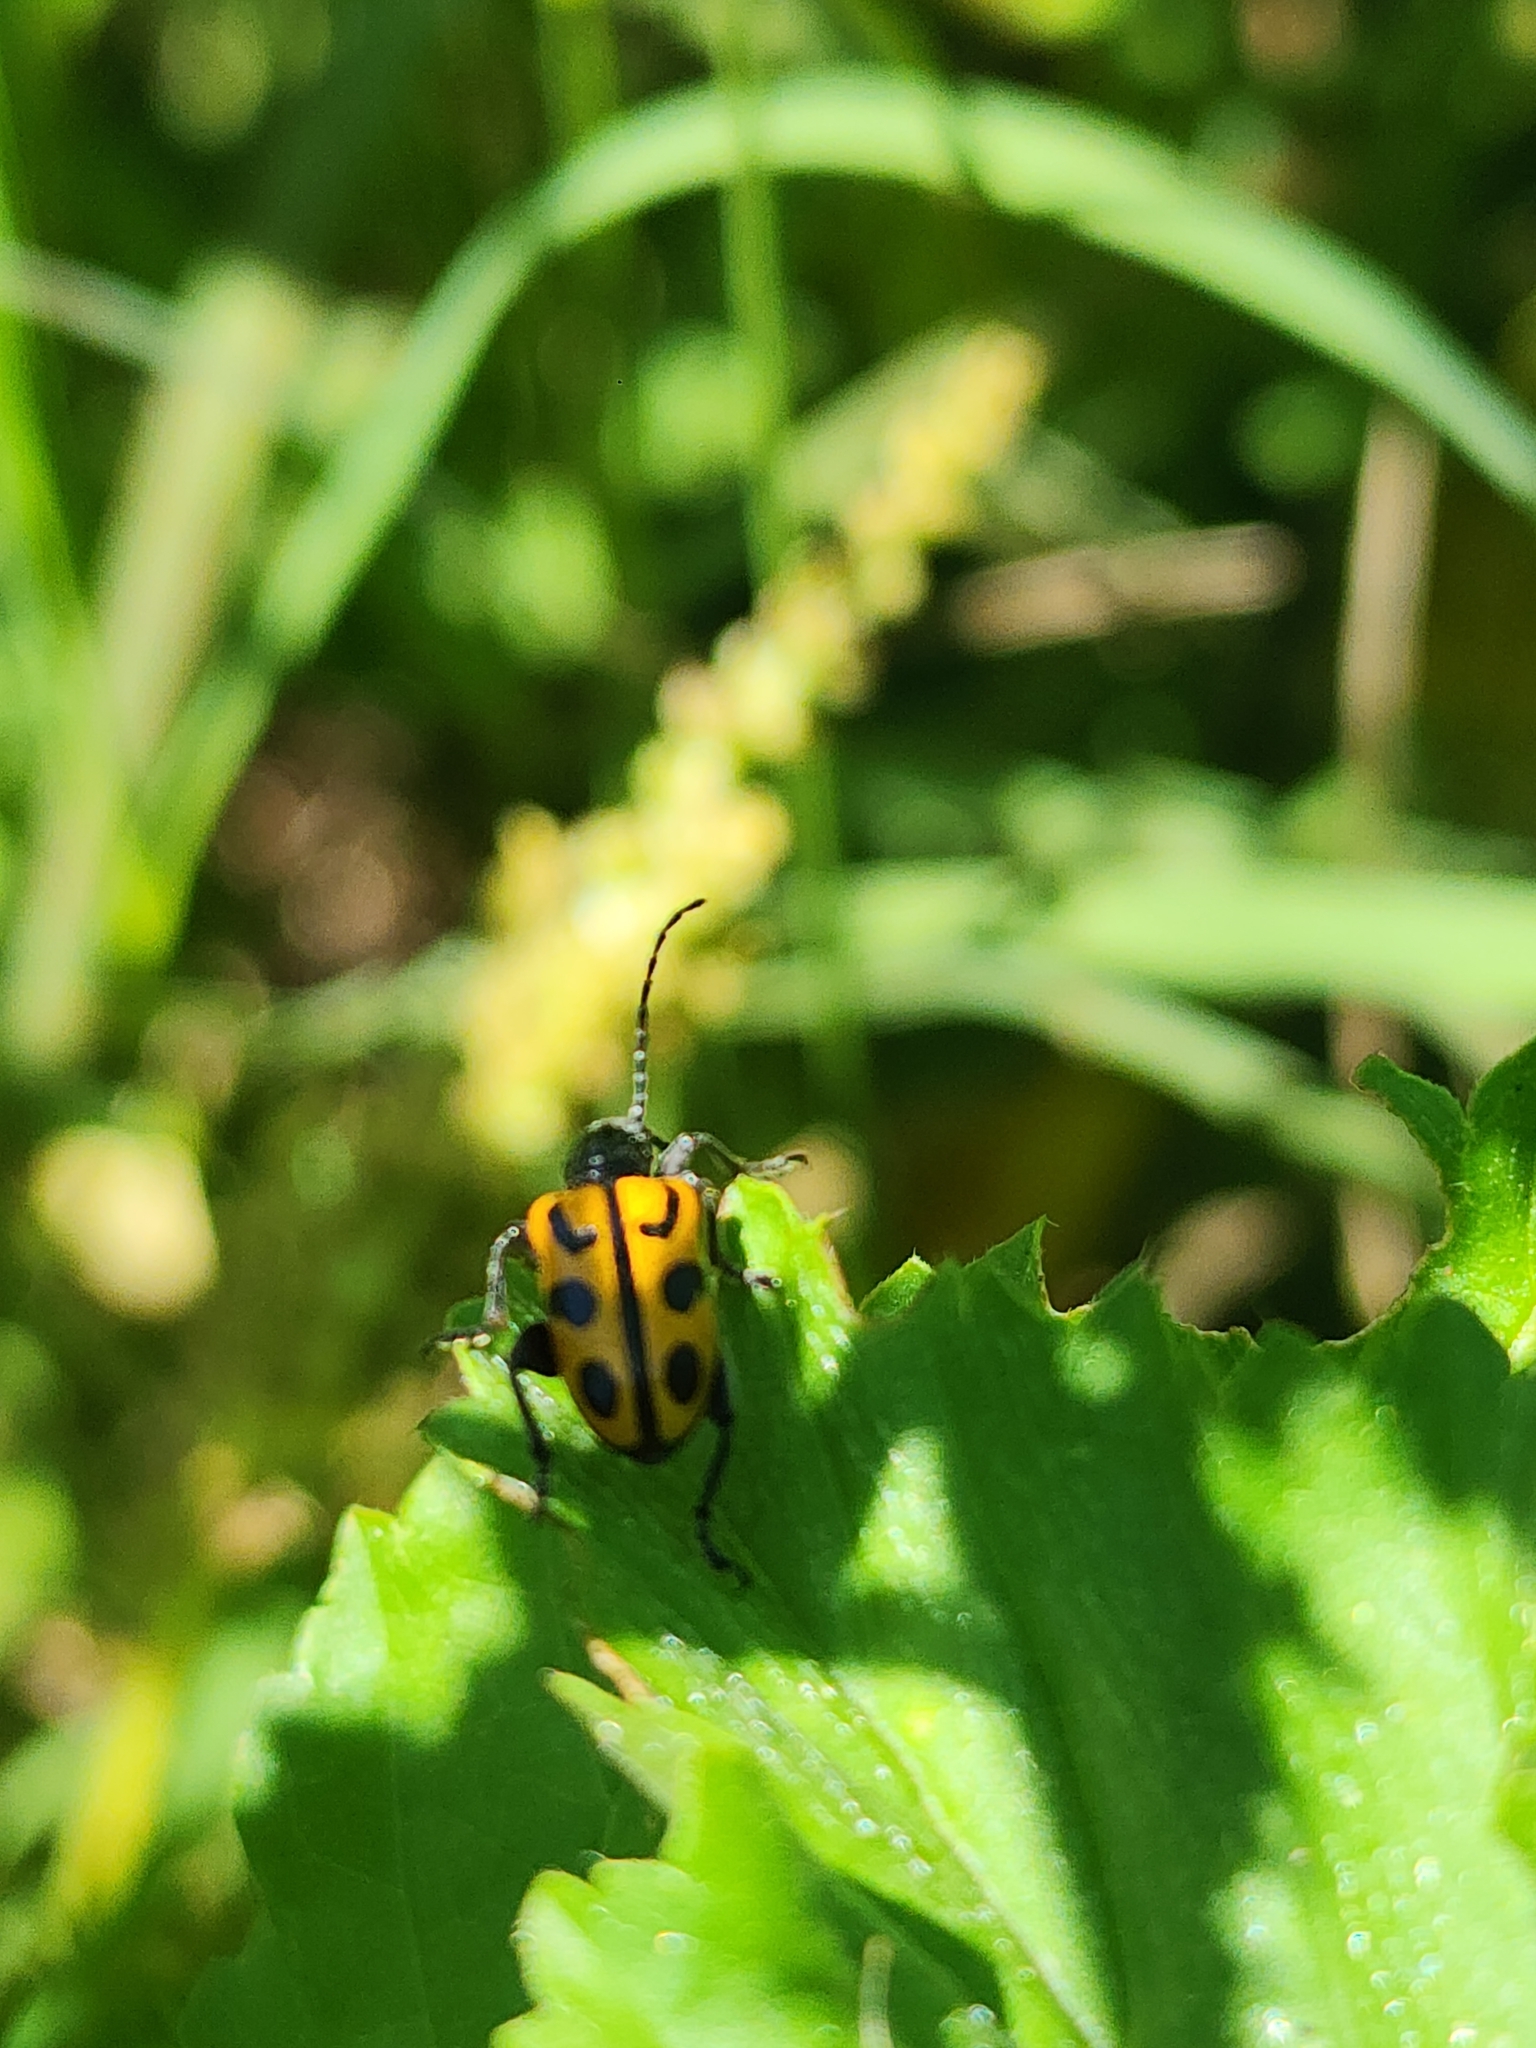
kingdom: Animalia
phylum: Arthropoda
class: Insecta
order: Coleoptera
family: Chrysomelidae
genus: Atalasis
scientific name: Atalasis
